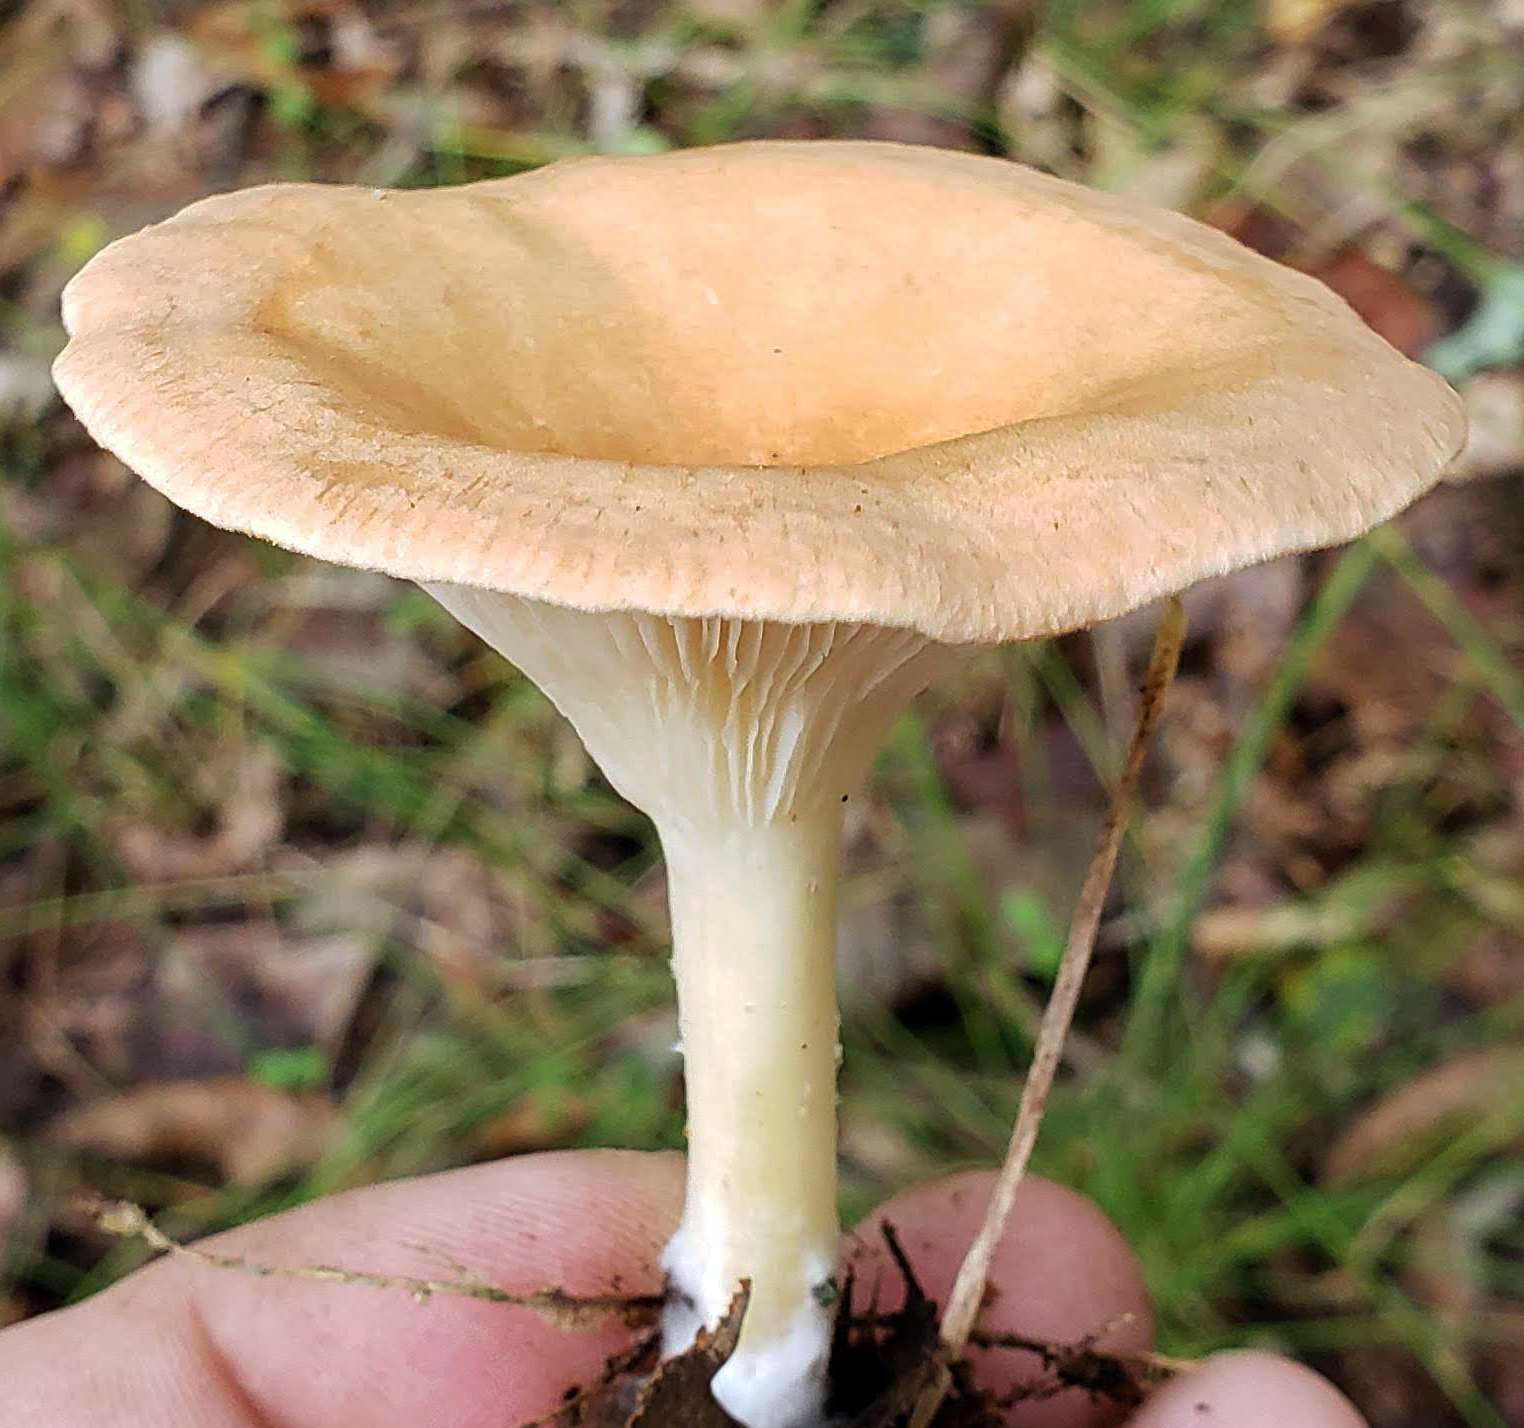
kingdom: Fungi
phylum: Basidiomycota
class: Agaricomycetes
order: Agaricales
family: Tricholomataceae
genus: Infundibulicybe
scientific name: Infundibulicybe gibba
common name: Common funnel
